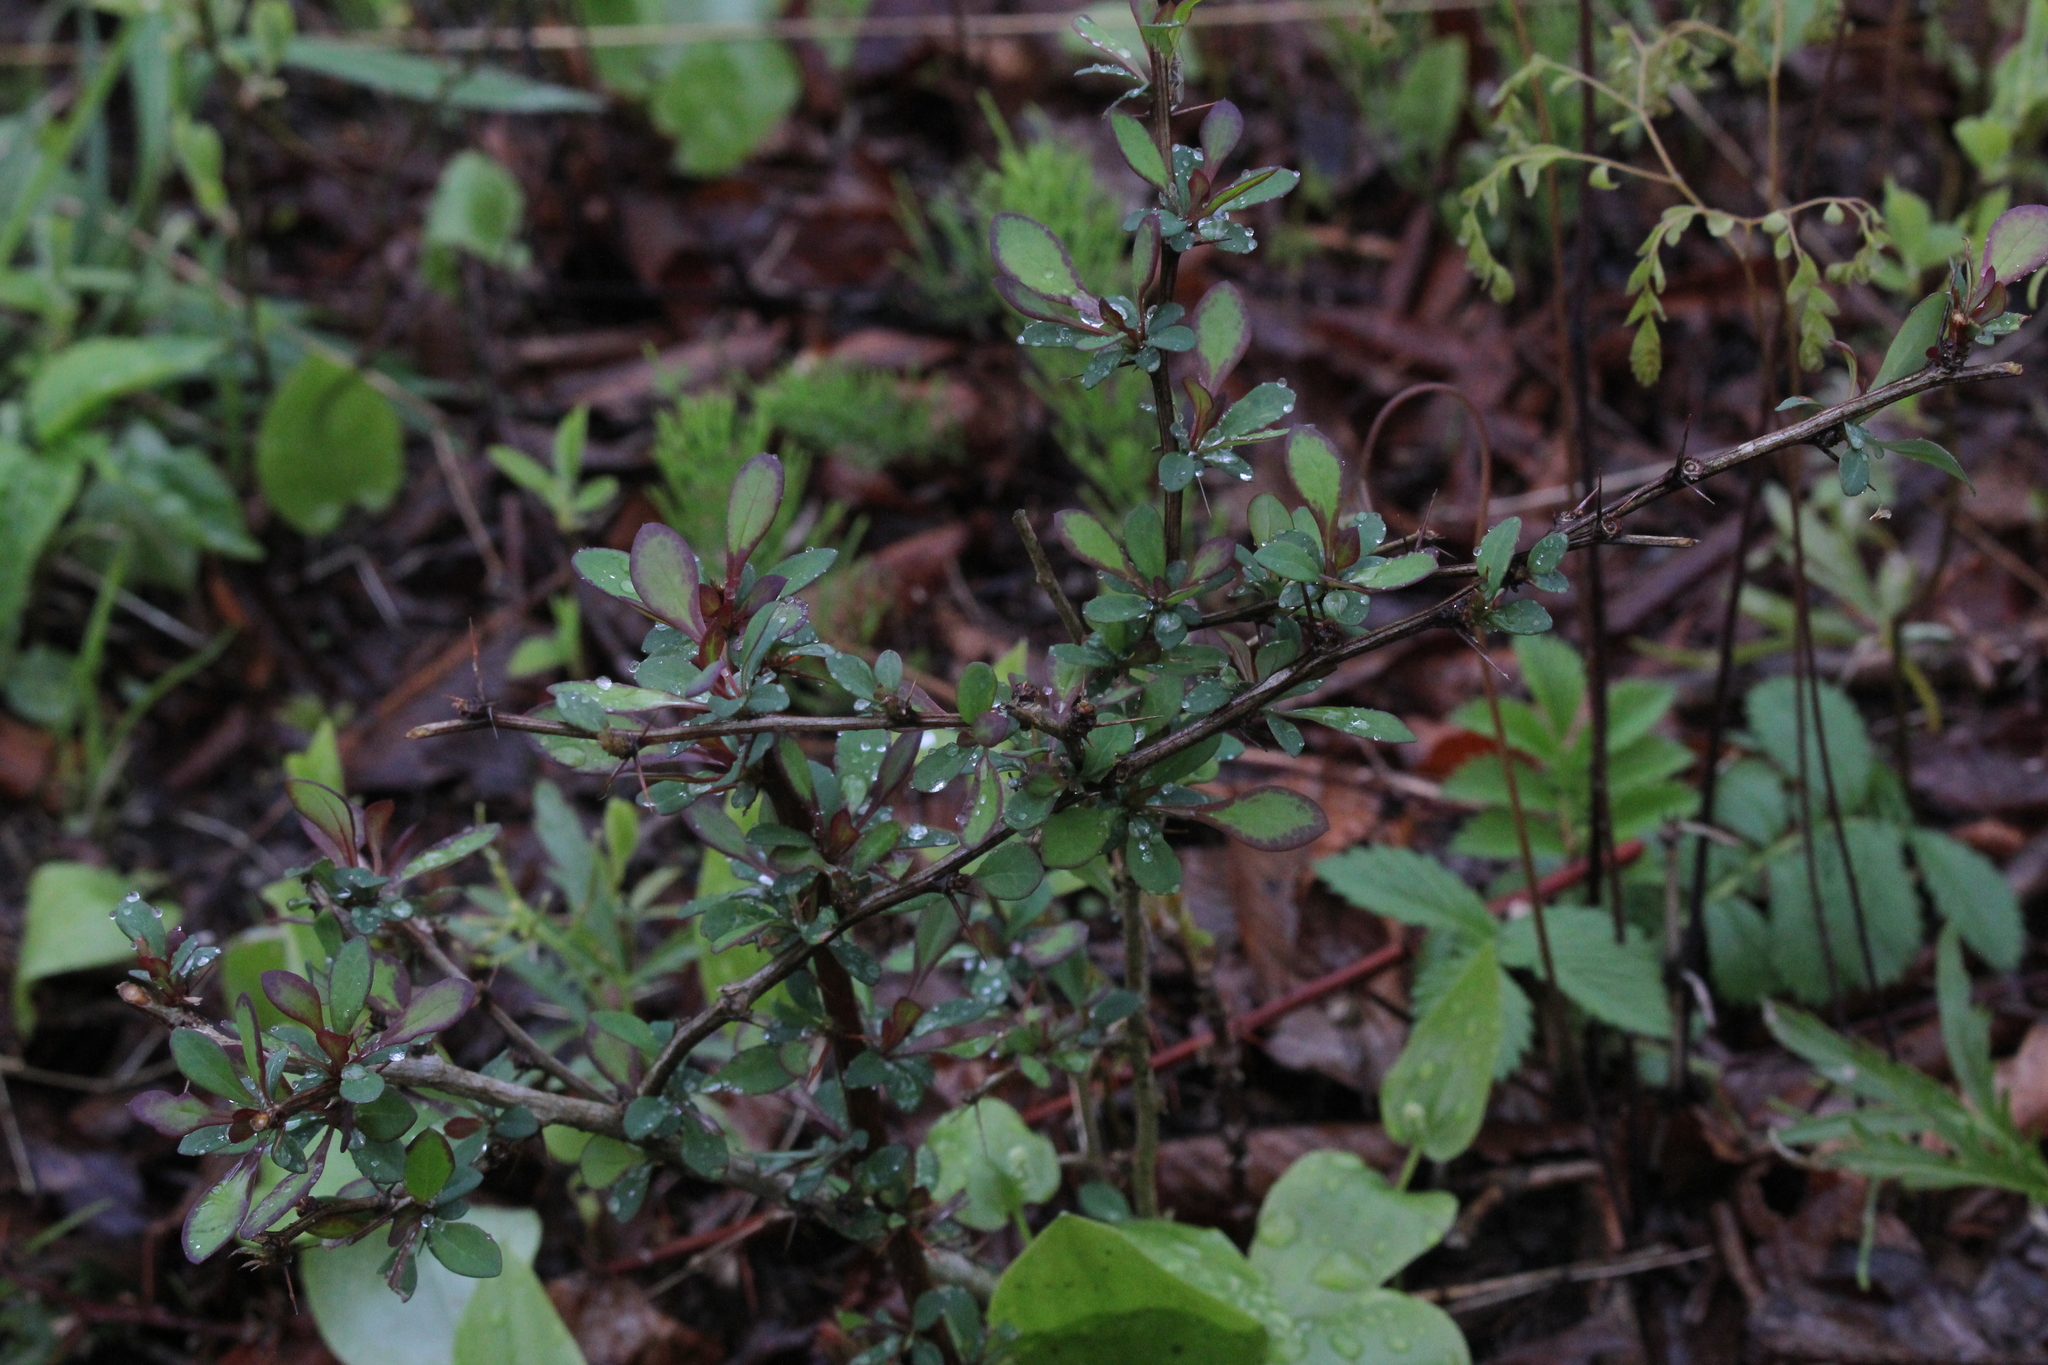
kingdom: Plantae
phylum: Tracheophyta
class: Magnoliopsida
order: Ranunculales
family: Berberidaceae
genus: Berberis
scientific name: Berberis thunbergii
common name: Japanese barberry
